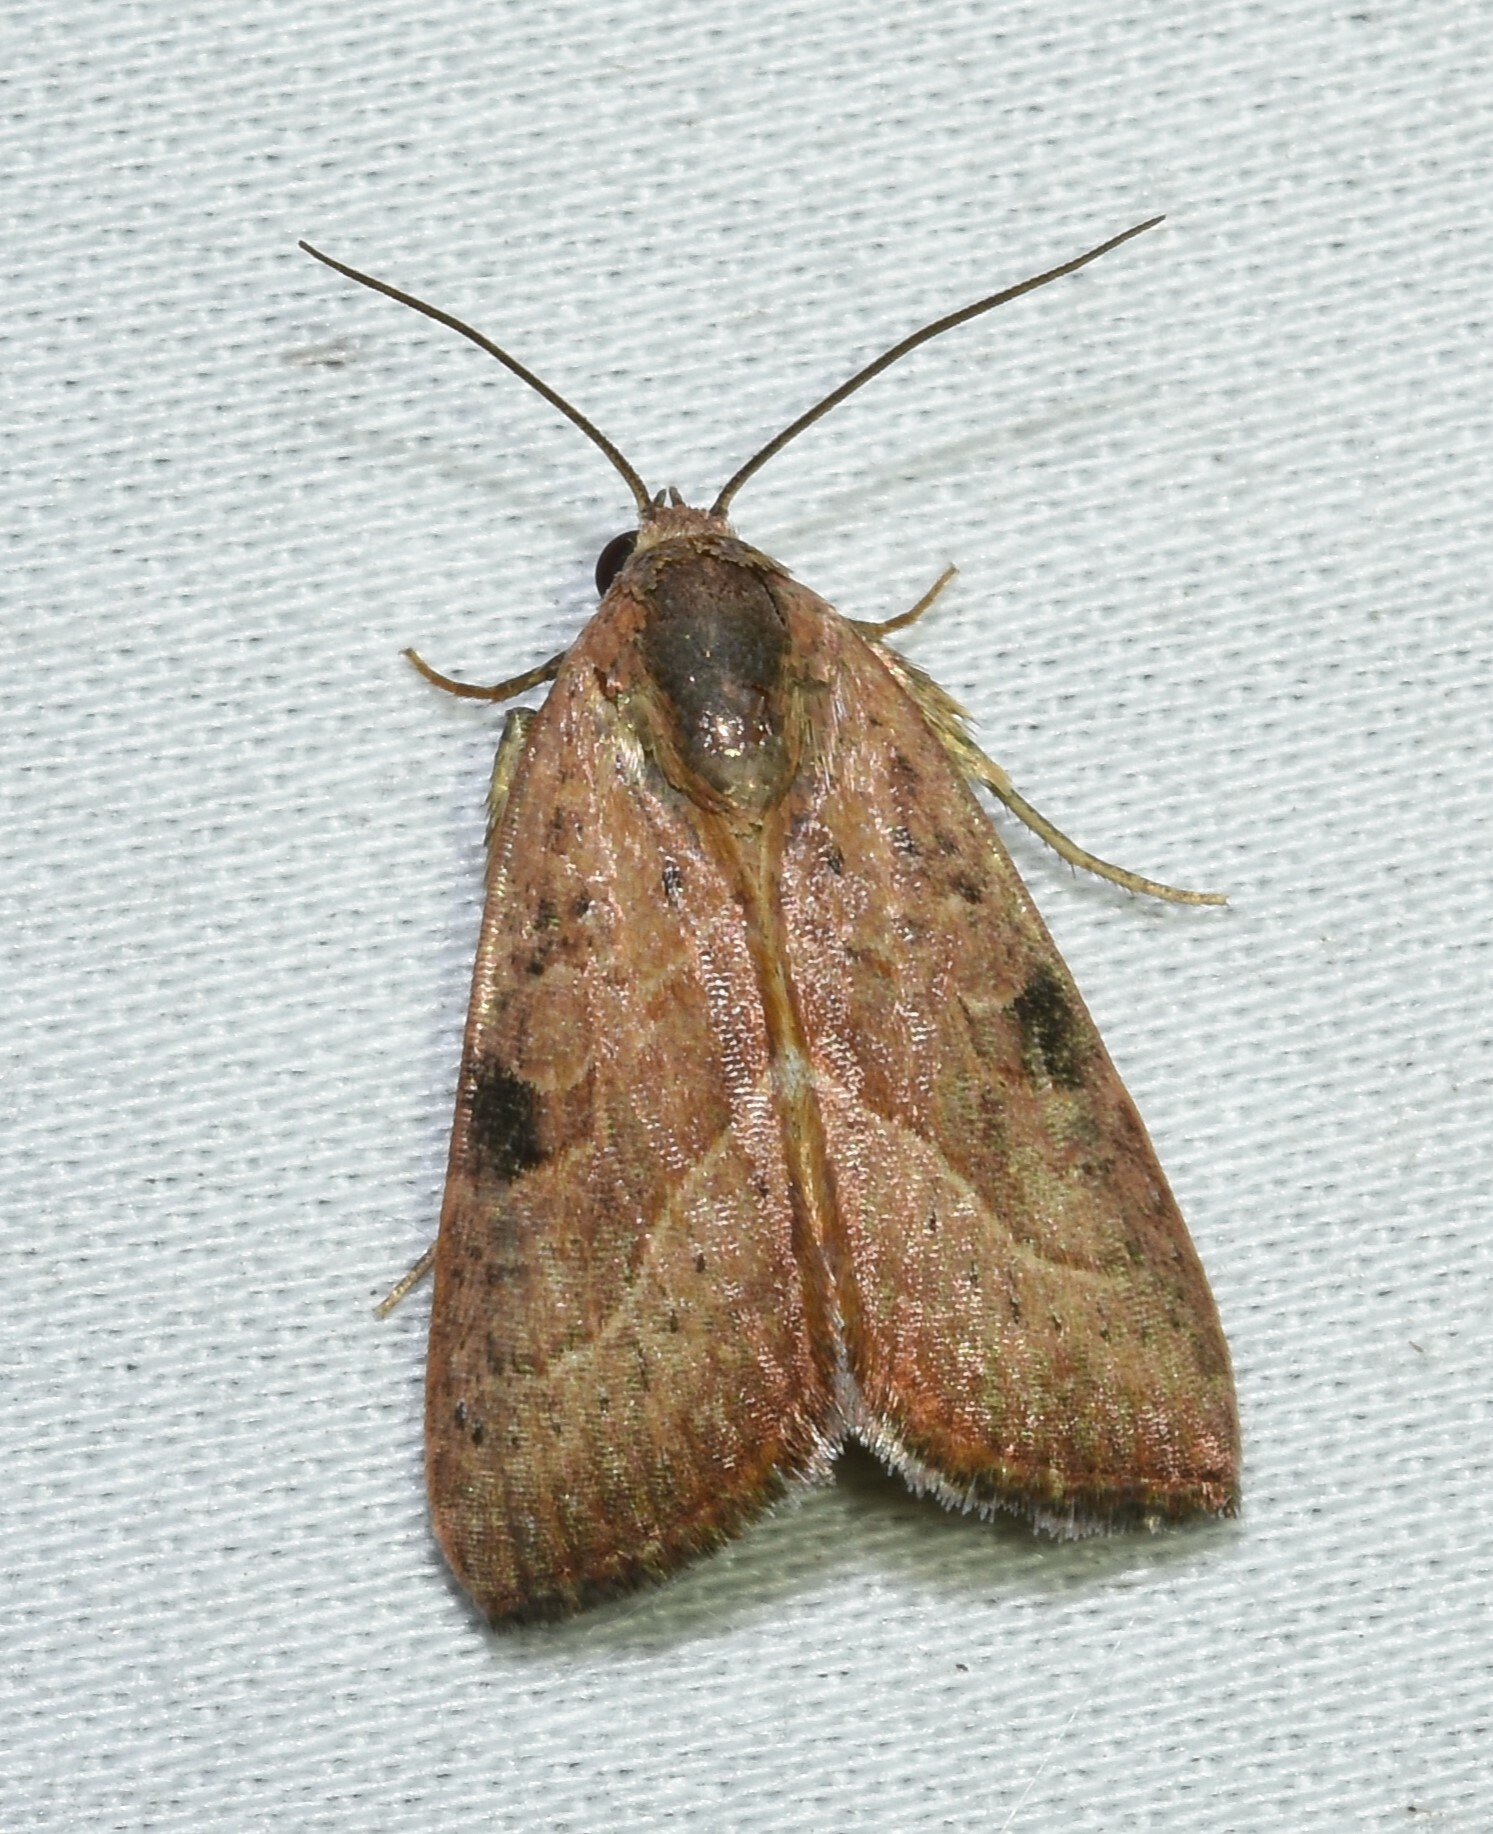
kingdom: Animalia
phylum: Arthropoda
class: Insecta
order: Lepidoptera
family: Noctuidae
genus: Galgula
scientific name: Galgula partita
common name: Wedgeling
